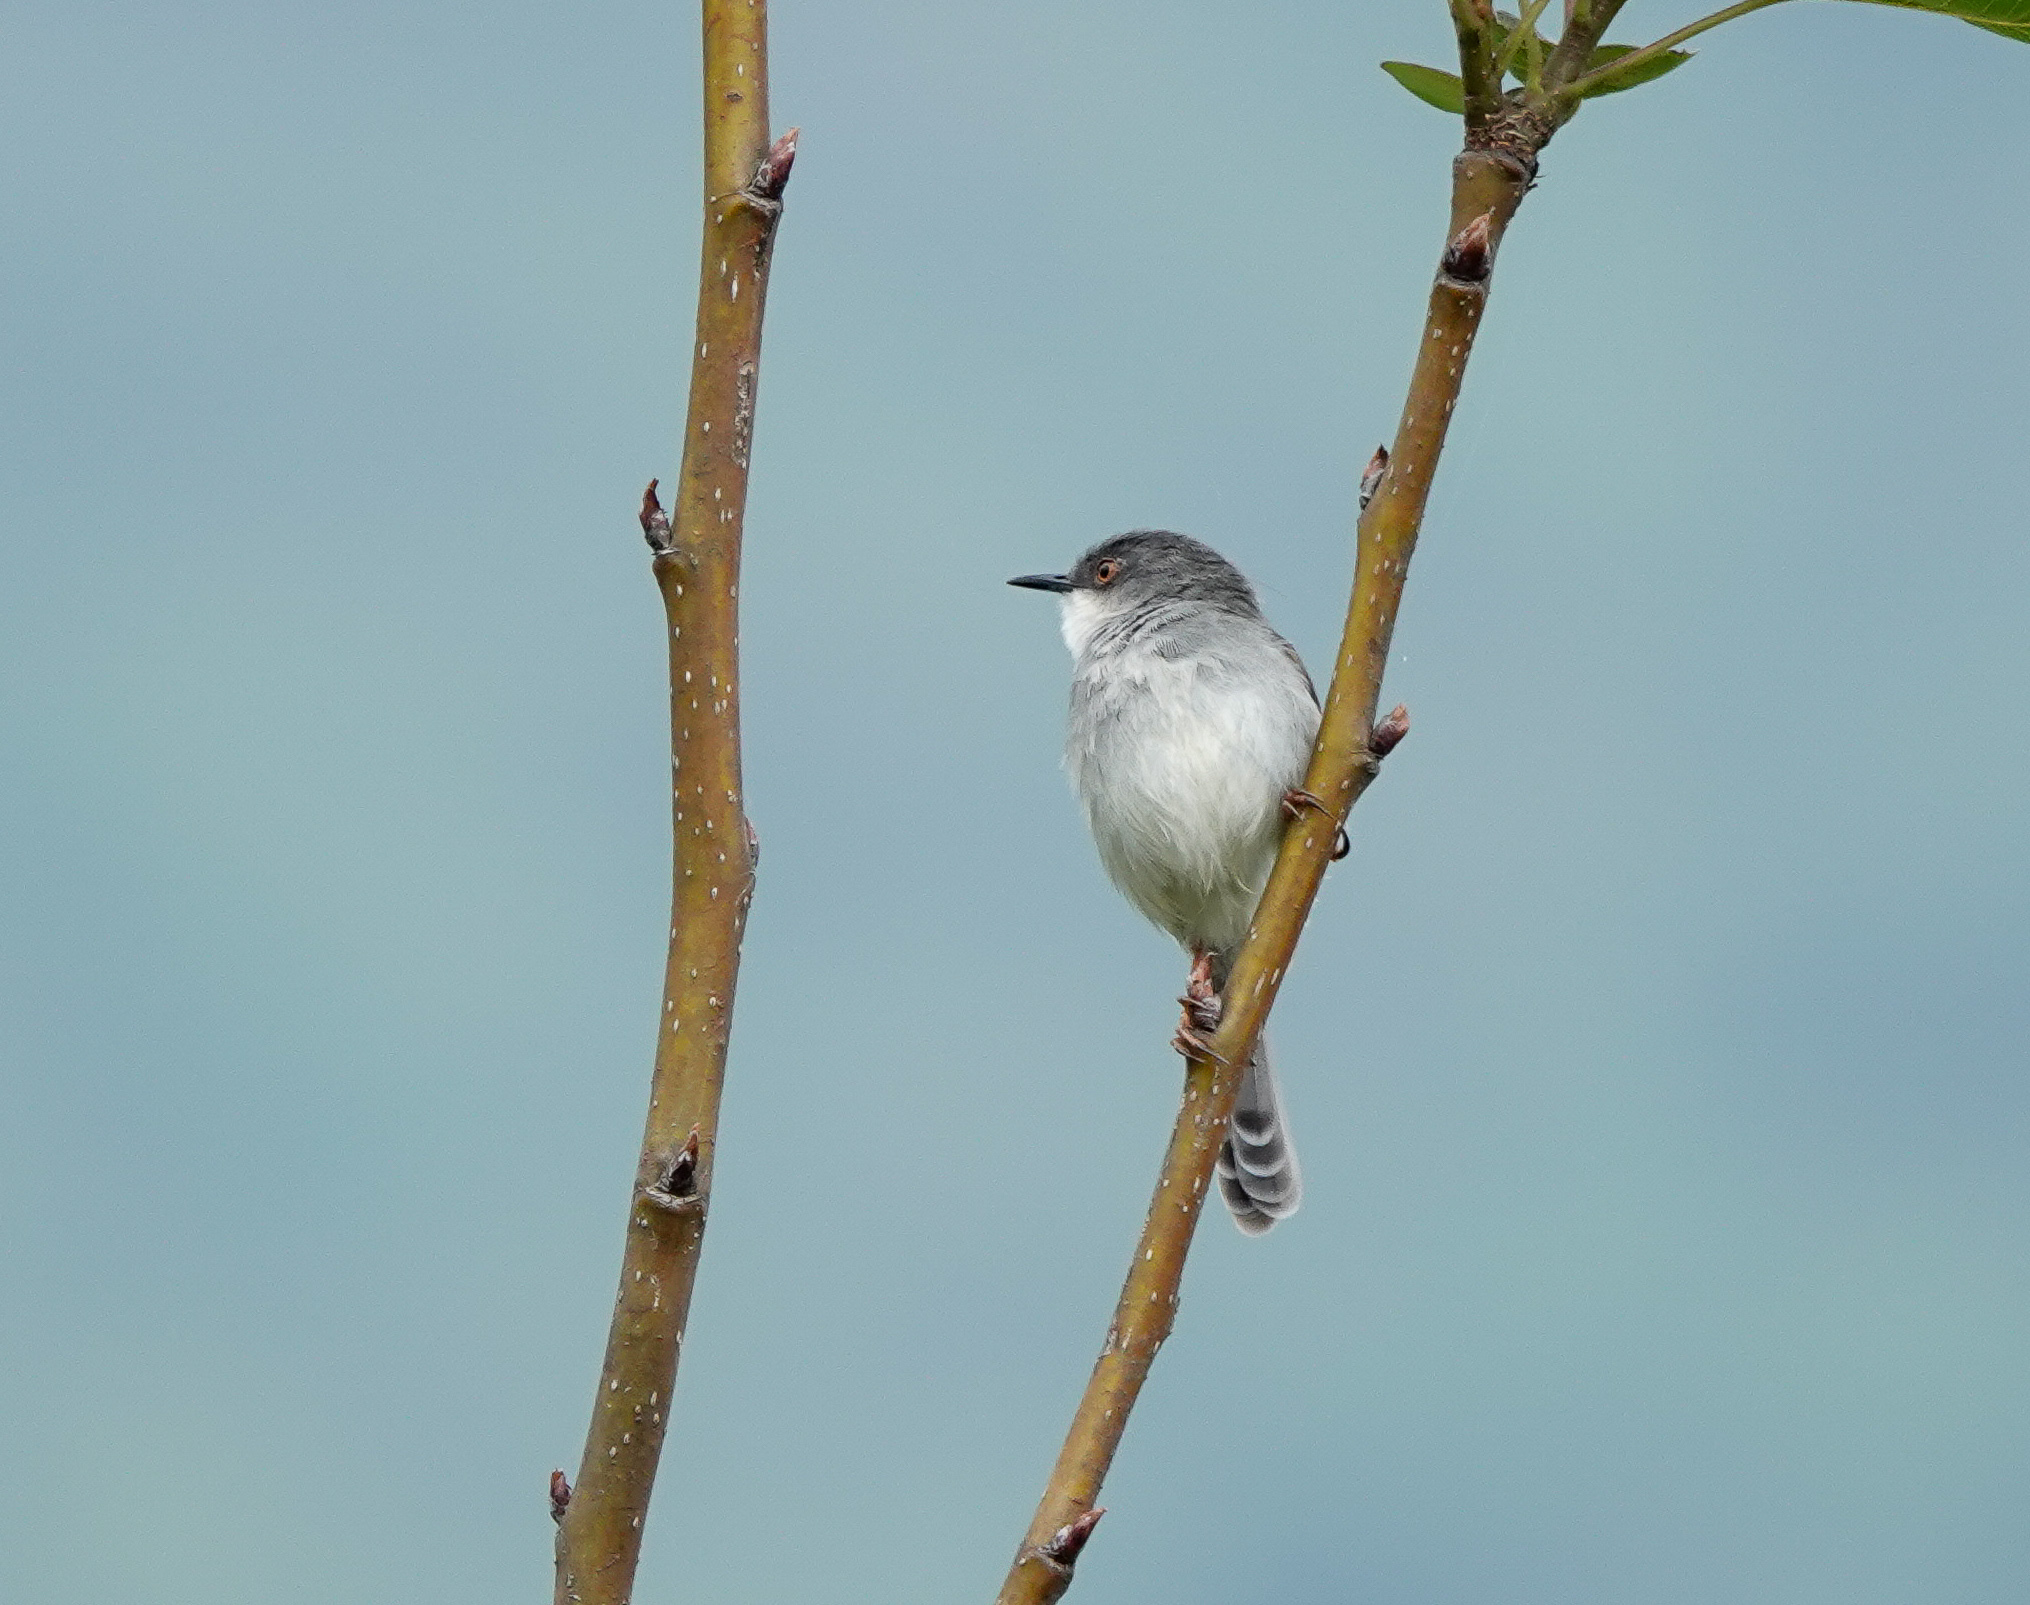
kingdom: Animalia
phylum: Chordata
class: Aves
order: Passeriformes
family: Cisticolidae
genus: Prinia
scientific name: Prinia hodgsonii
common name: Grey-breasted prinia
